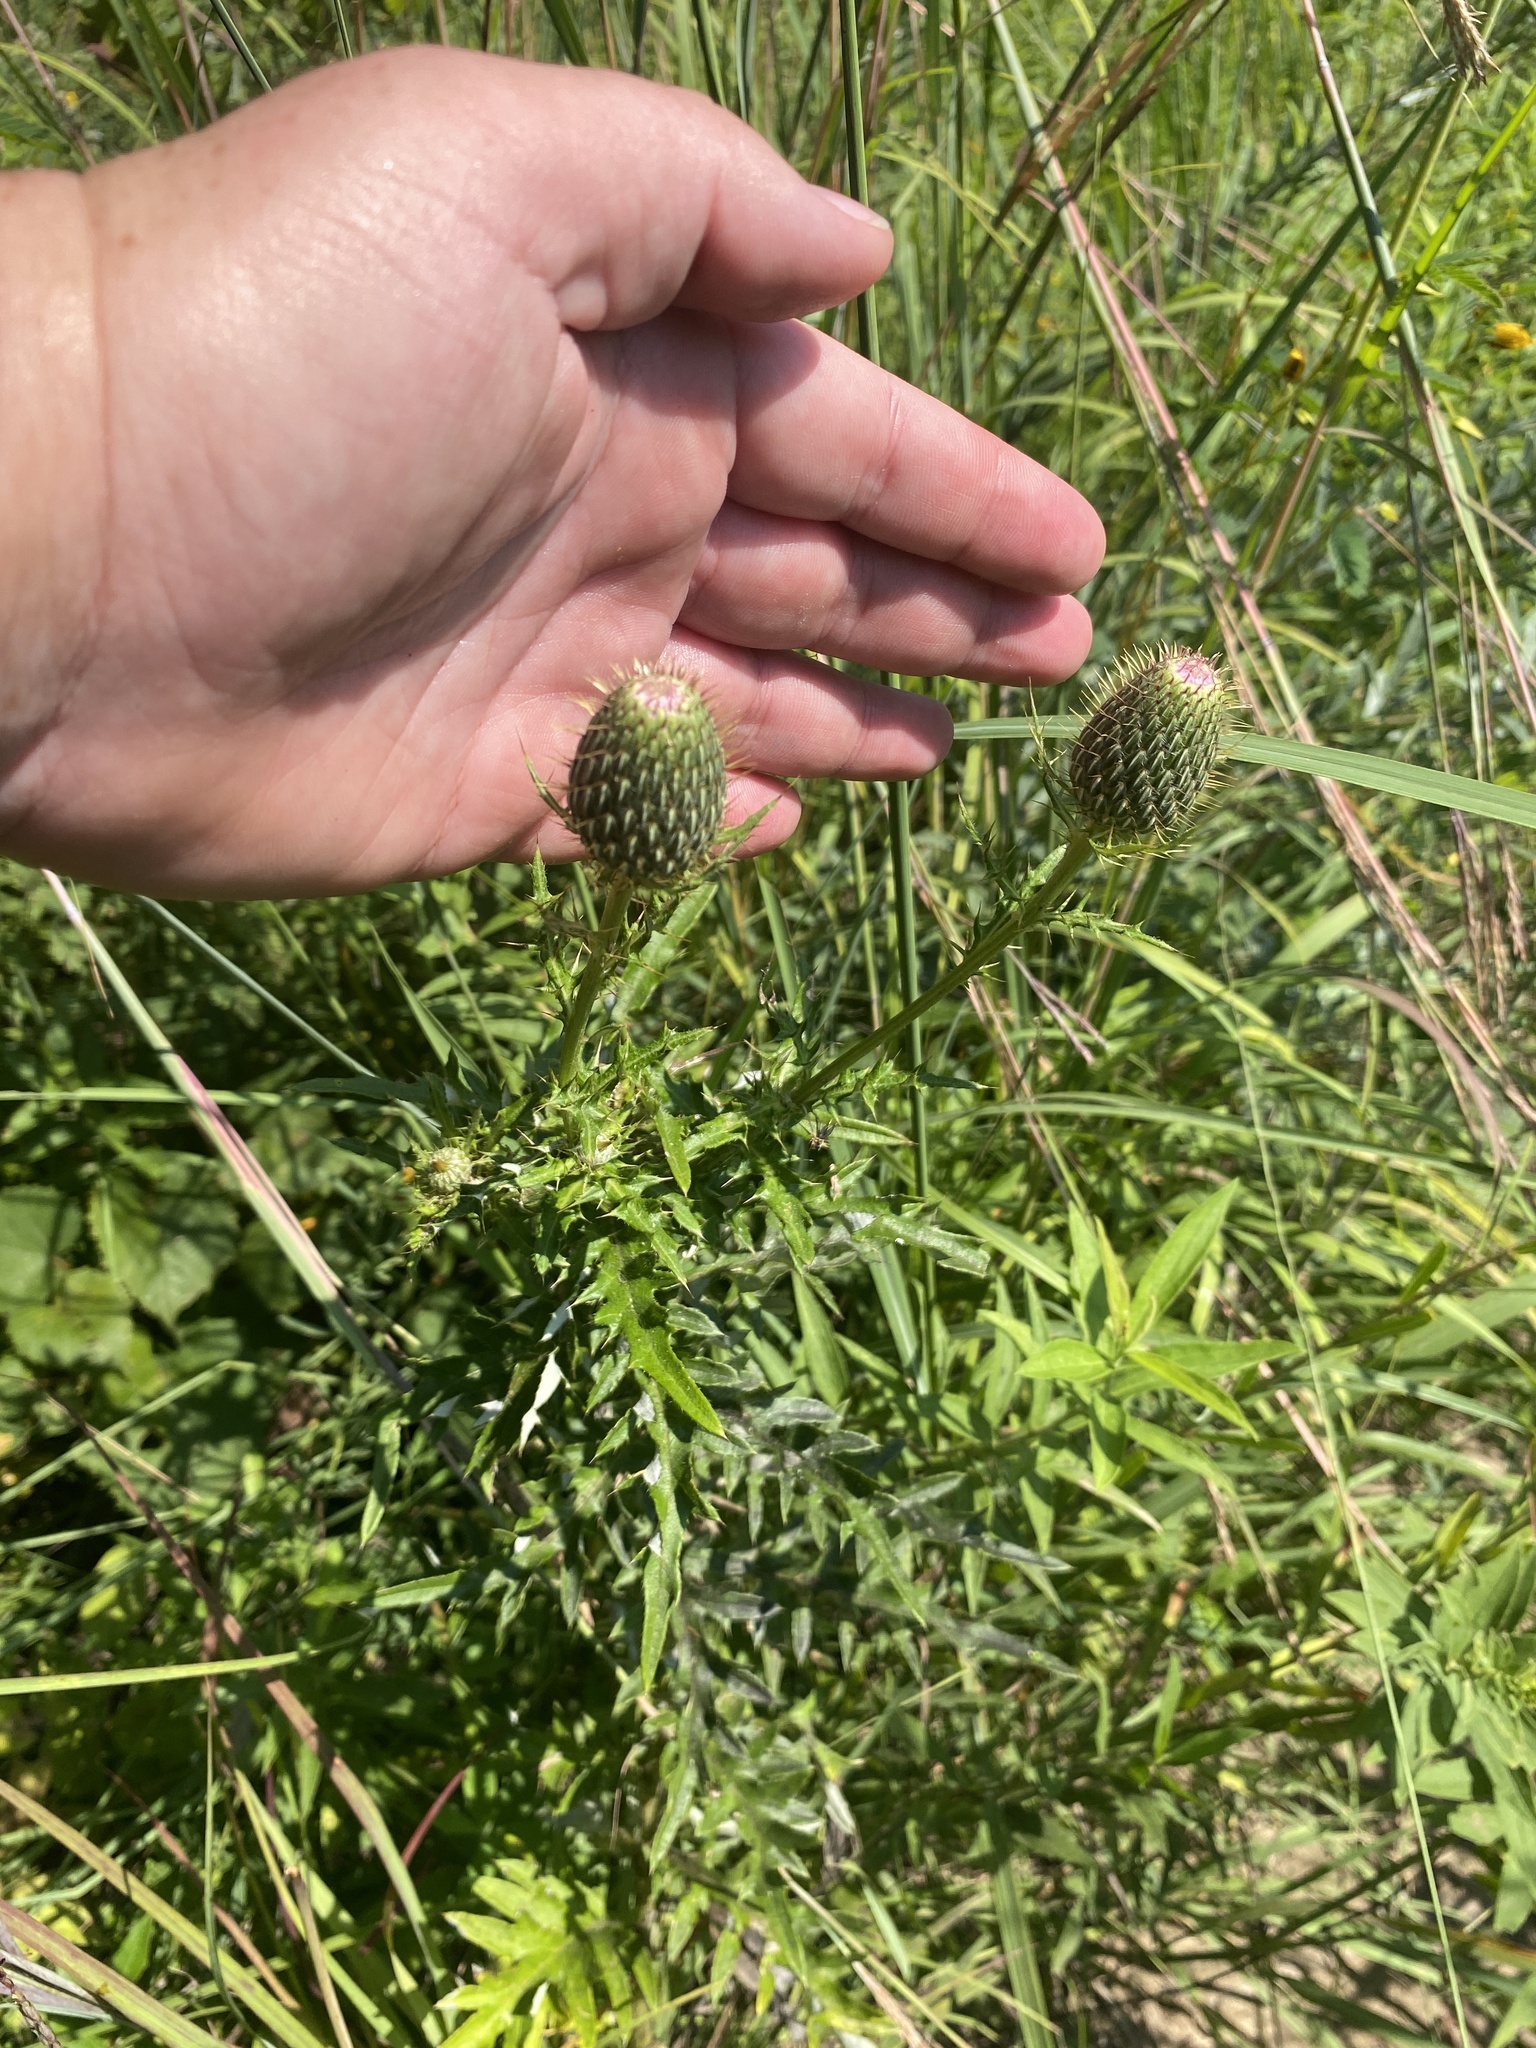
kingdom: Plantae
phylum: Tracheophyta
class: Magnoliopsida
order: Asterales
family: Asteraceae
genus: Cirsium
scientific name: Cirsium discolor
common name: Field thistle
